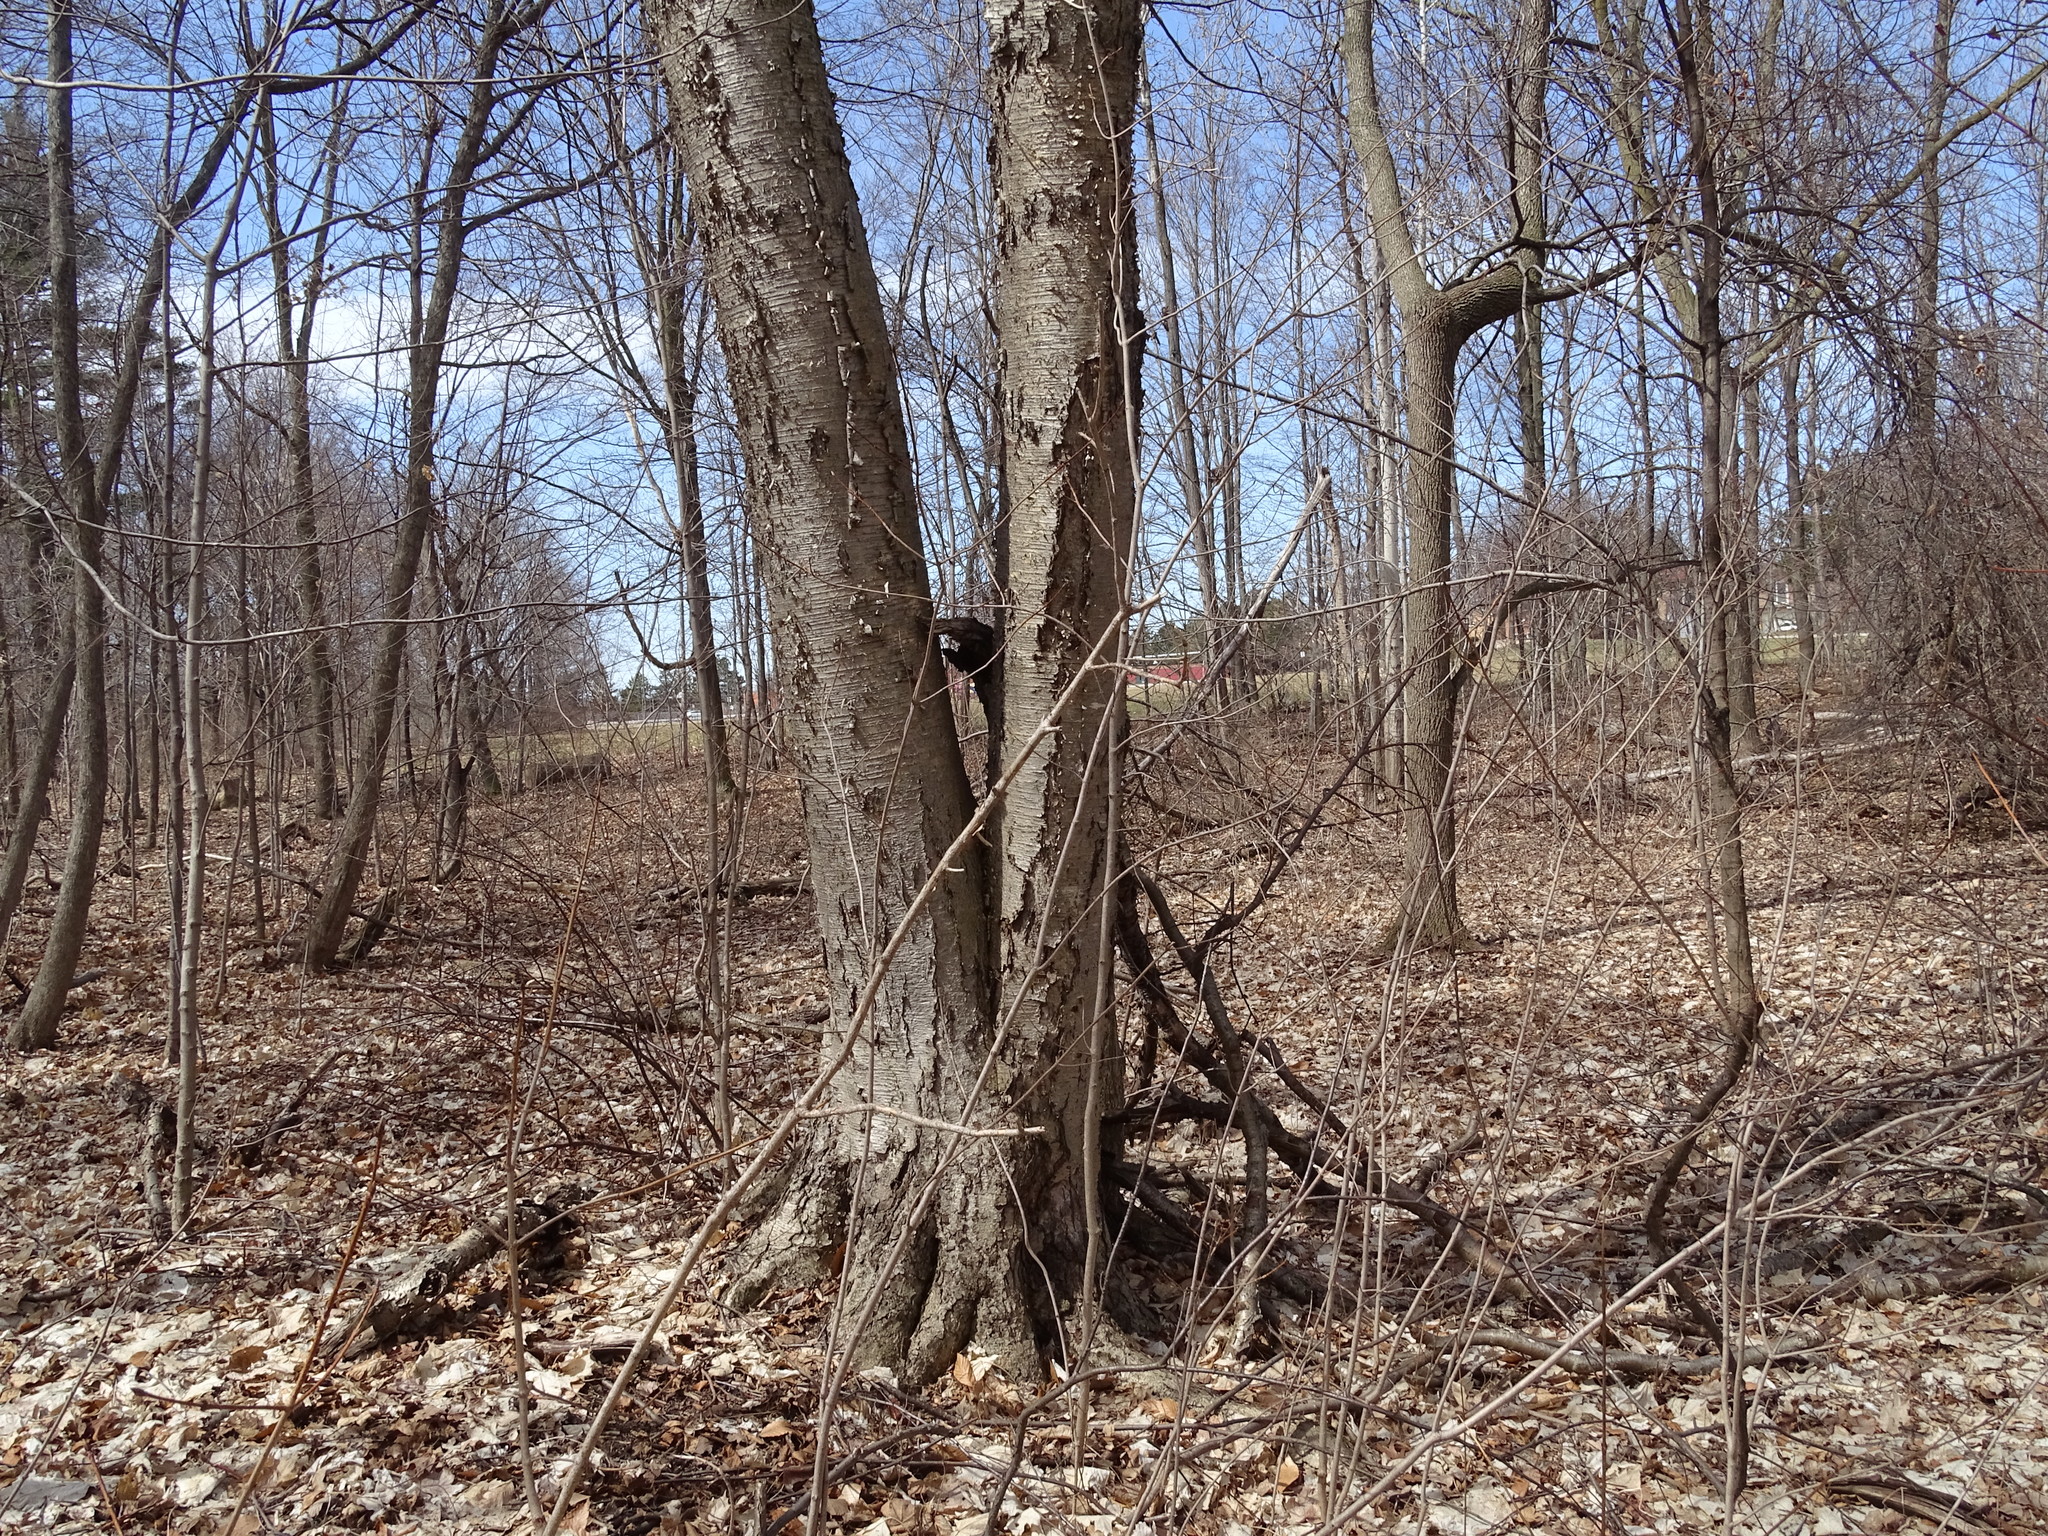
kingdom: Plantae
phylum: Tracheophyta
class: Magnoliopsida
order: Fagales
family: Betulaceae
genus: Betula
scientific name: Betula alleghaniensis
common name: Yellow birch
